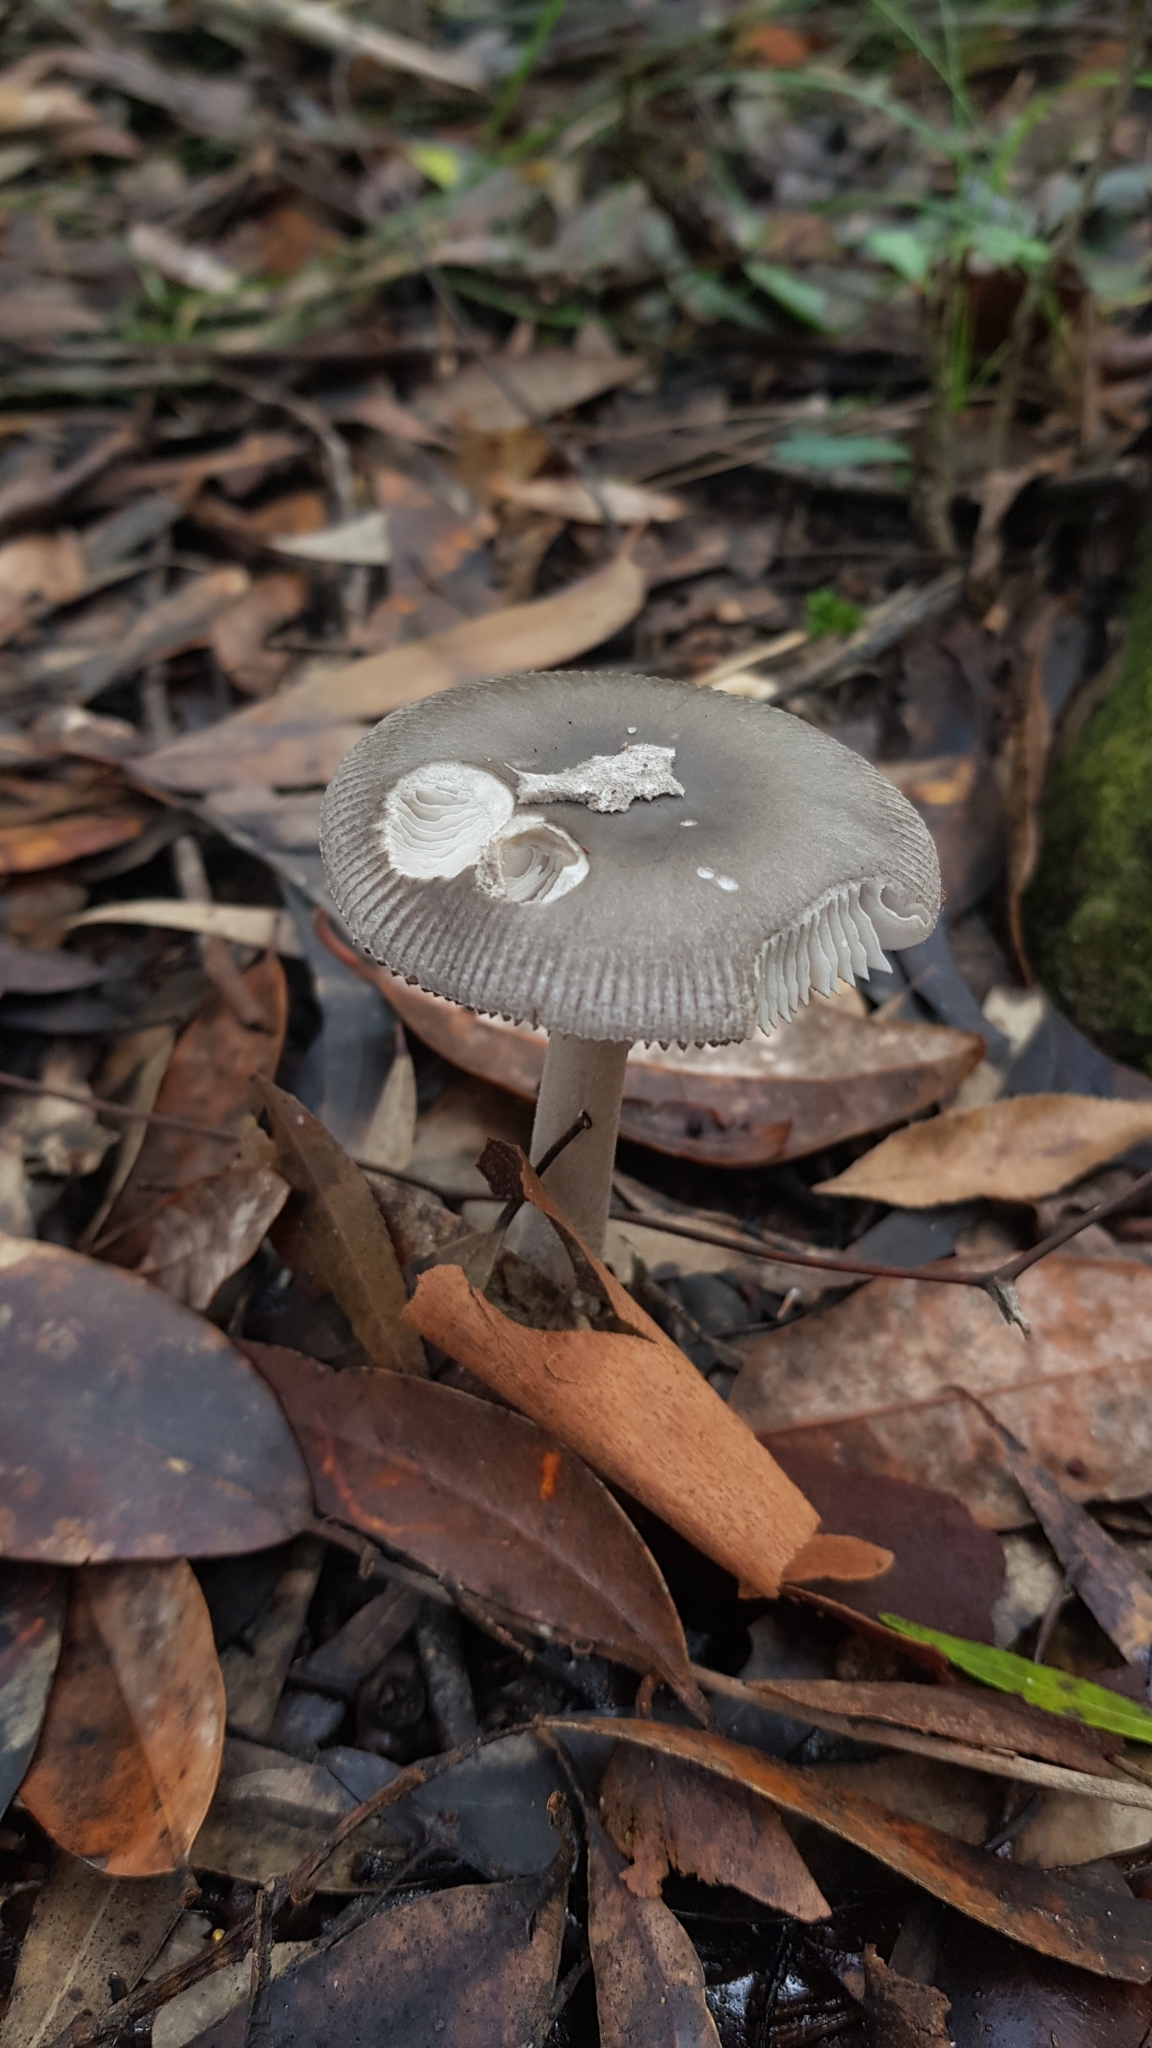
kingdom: Fungi
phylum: Basidiomycota
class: Agaricomycetes
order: Agaricales
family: Amanitaceae
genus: Amanita
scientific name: Amanita cheelii
